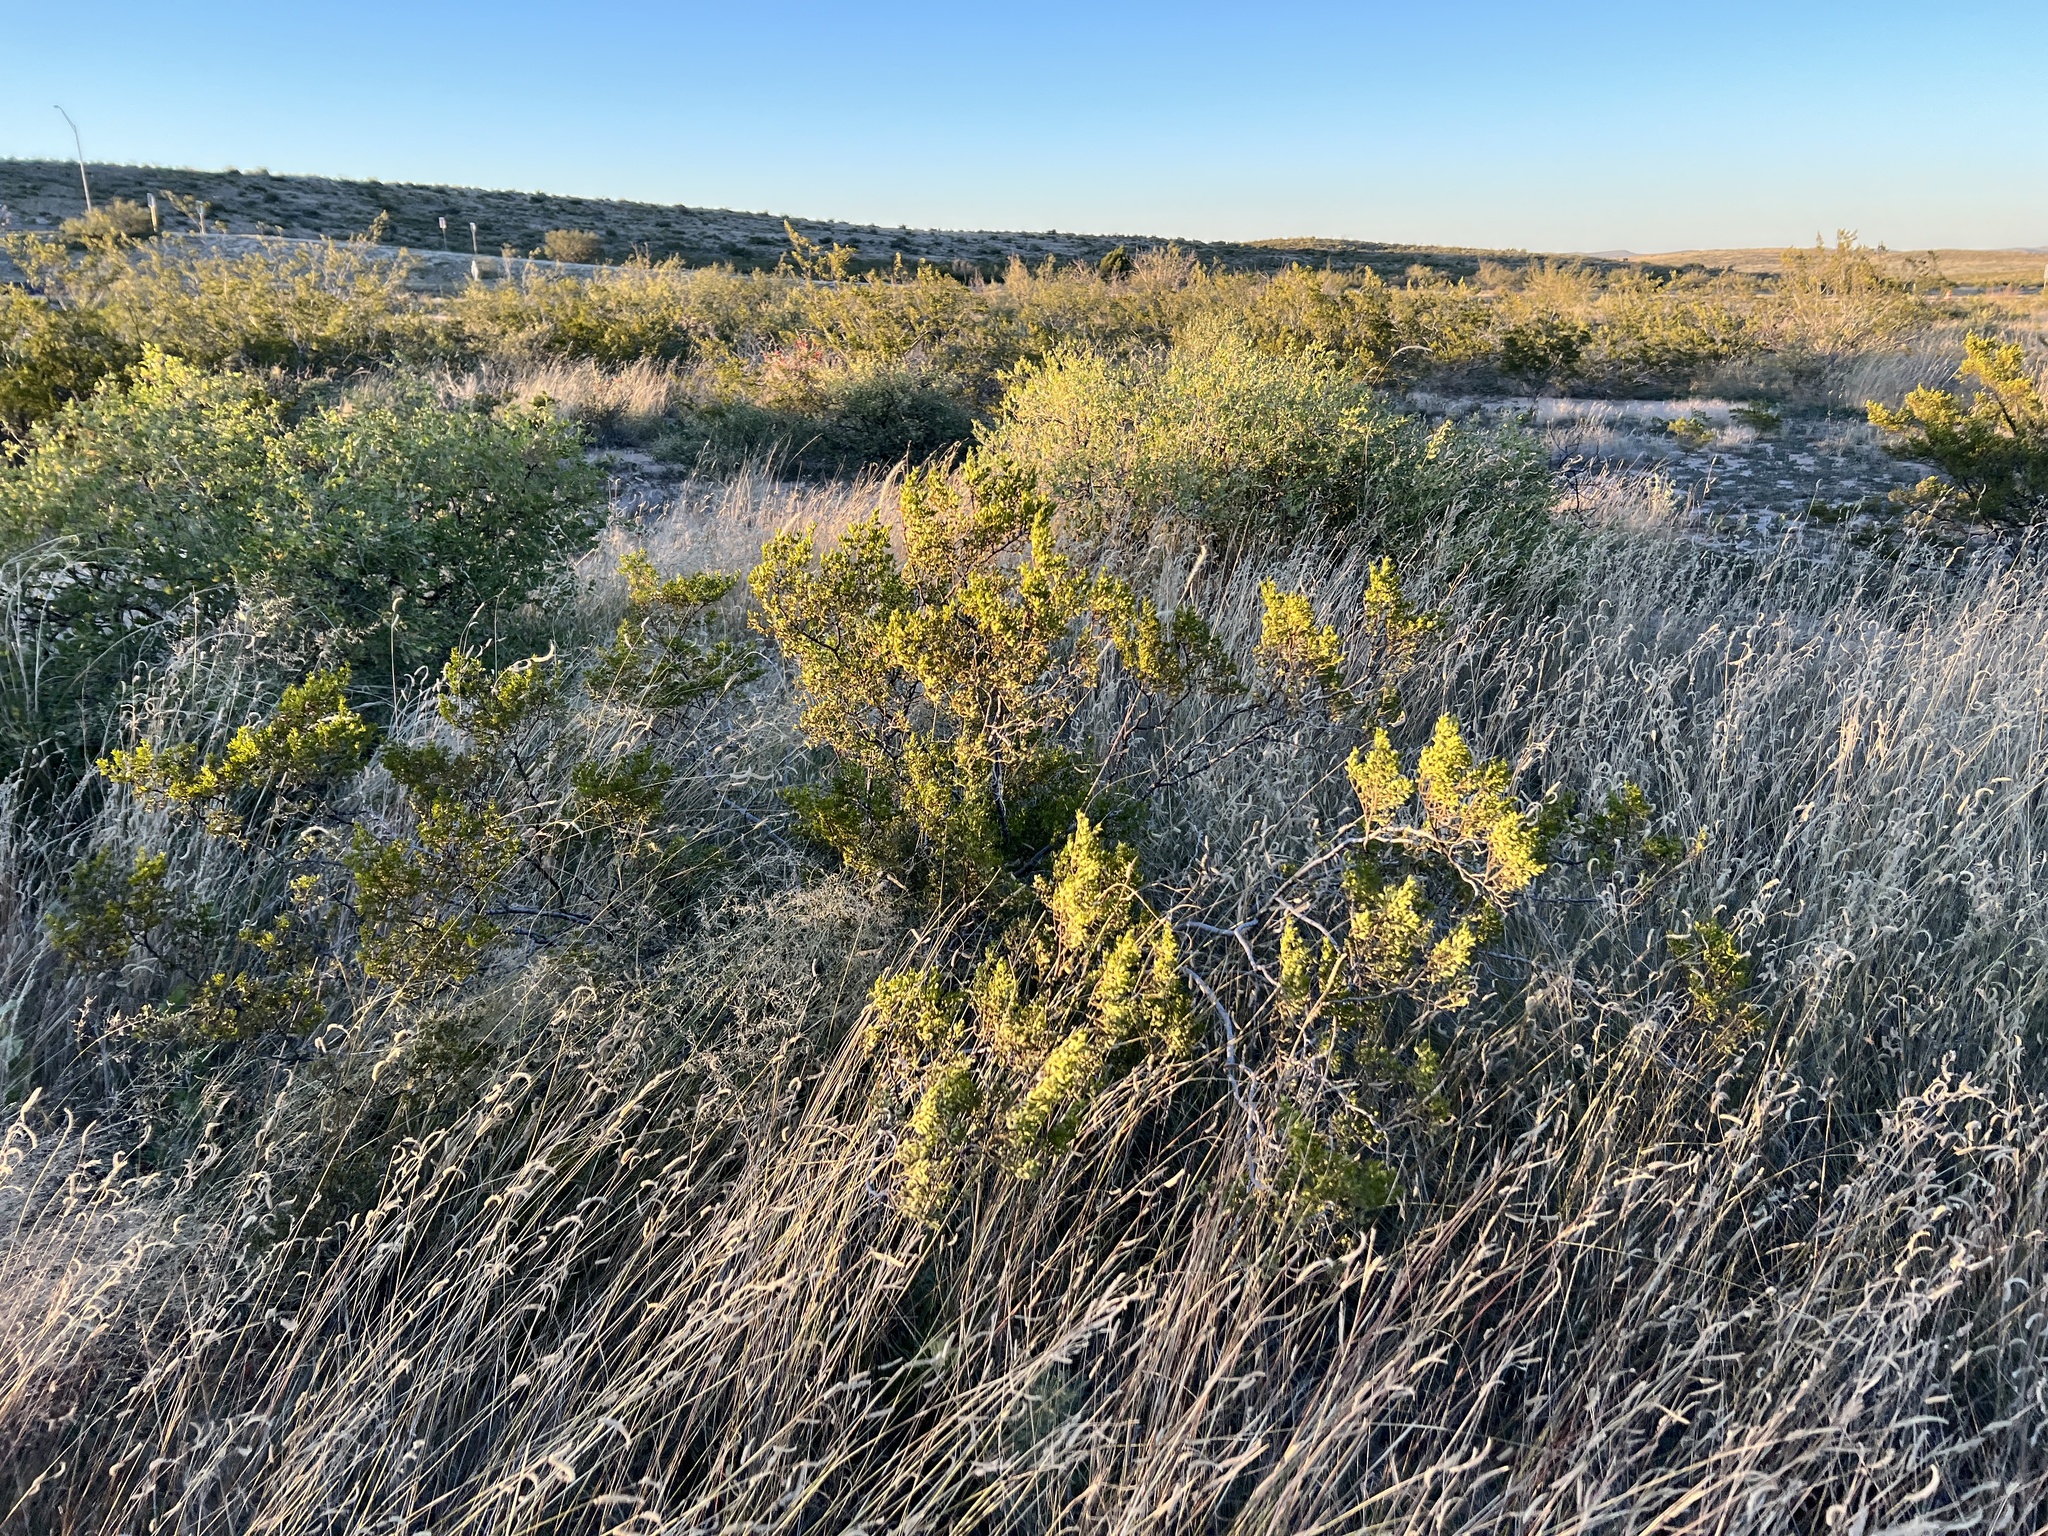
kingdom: Plantae
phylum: Tracheophyta
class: Magnoliopsida
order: Zygophyllales
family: Zygophyllaceae
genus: Larrea
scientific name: Larrea tridentata
